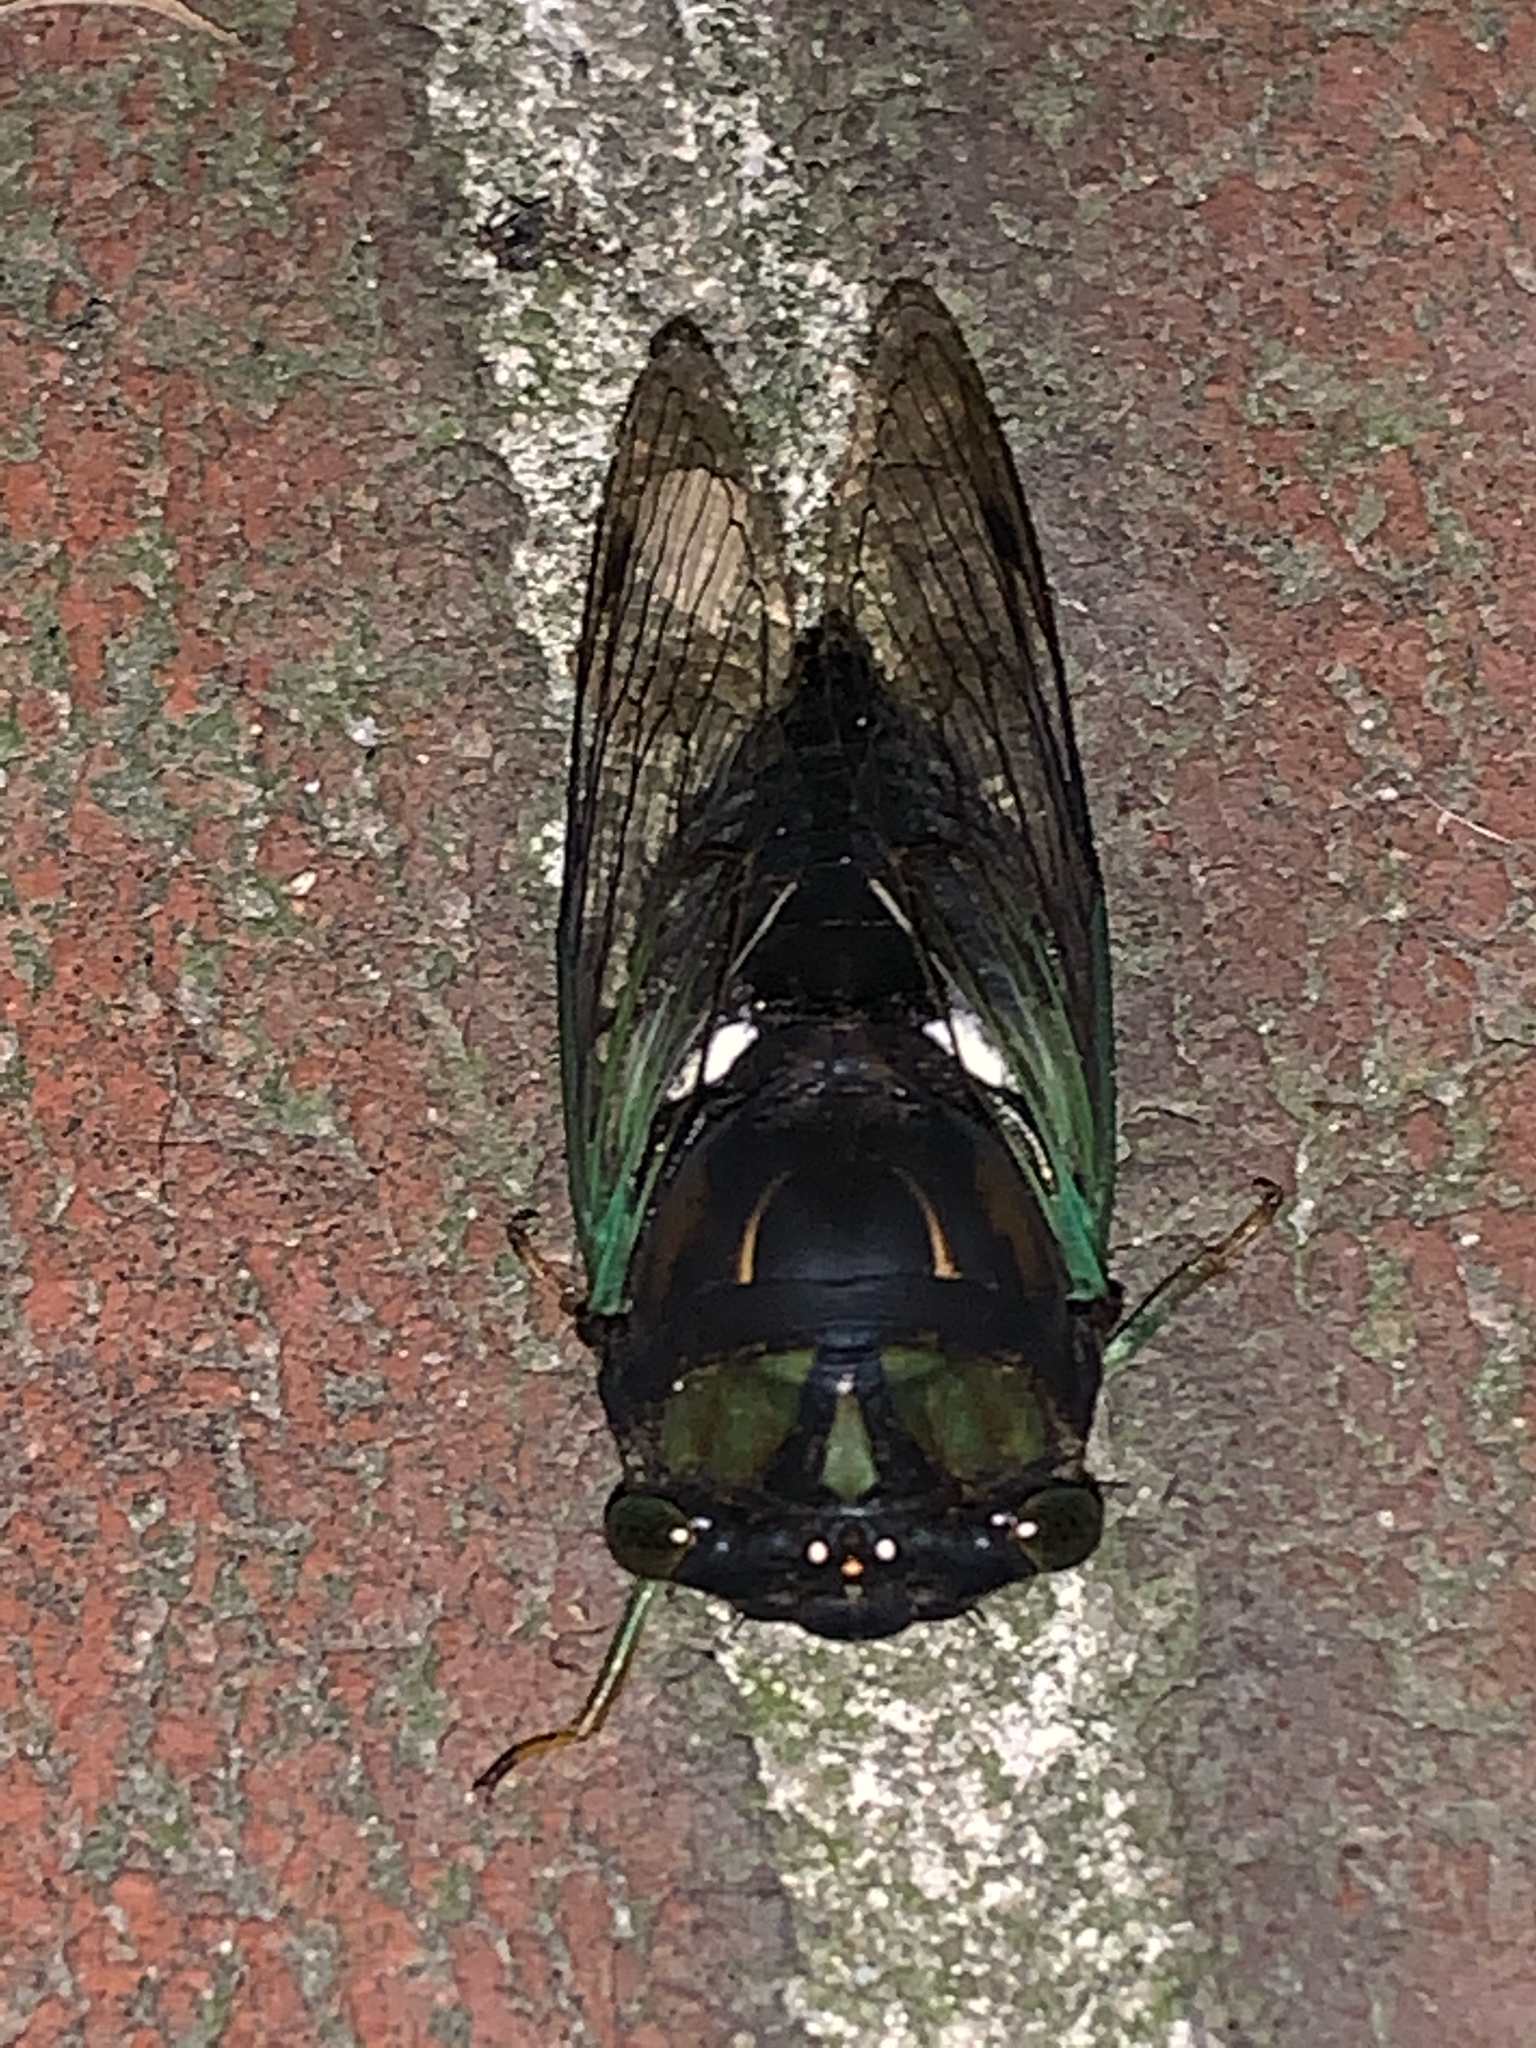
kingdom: Animalia
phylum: Arthropoda
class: Insecta
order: Hemiptera
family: Cicadidae
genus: Neotibicen
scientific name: Neotibicen tibicen
